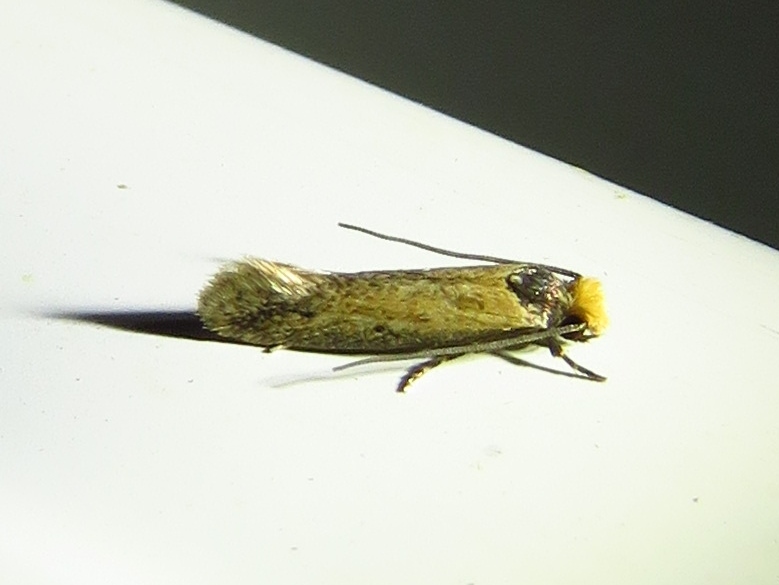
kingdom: Animalia
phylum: Arthropoda
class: Insecta
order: Lepidoptera
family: Meessiidae
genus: Homostinea
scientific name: Homostinea curviliniella
